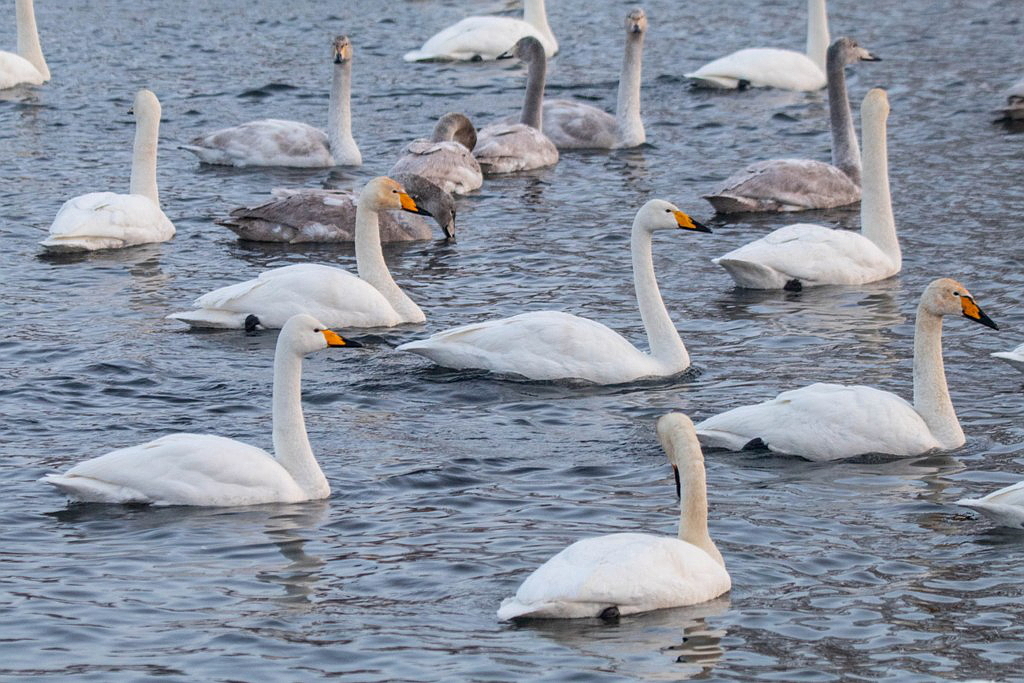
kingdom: Animalia
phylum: Chordata
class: Aves
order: Anseriformes
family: Anatidae
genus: Cygnus
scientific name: Cygnus cygnus
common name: Whooper swan
